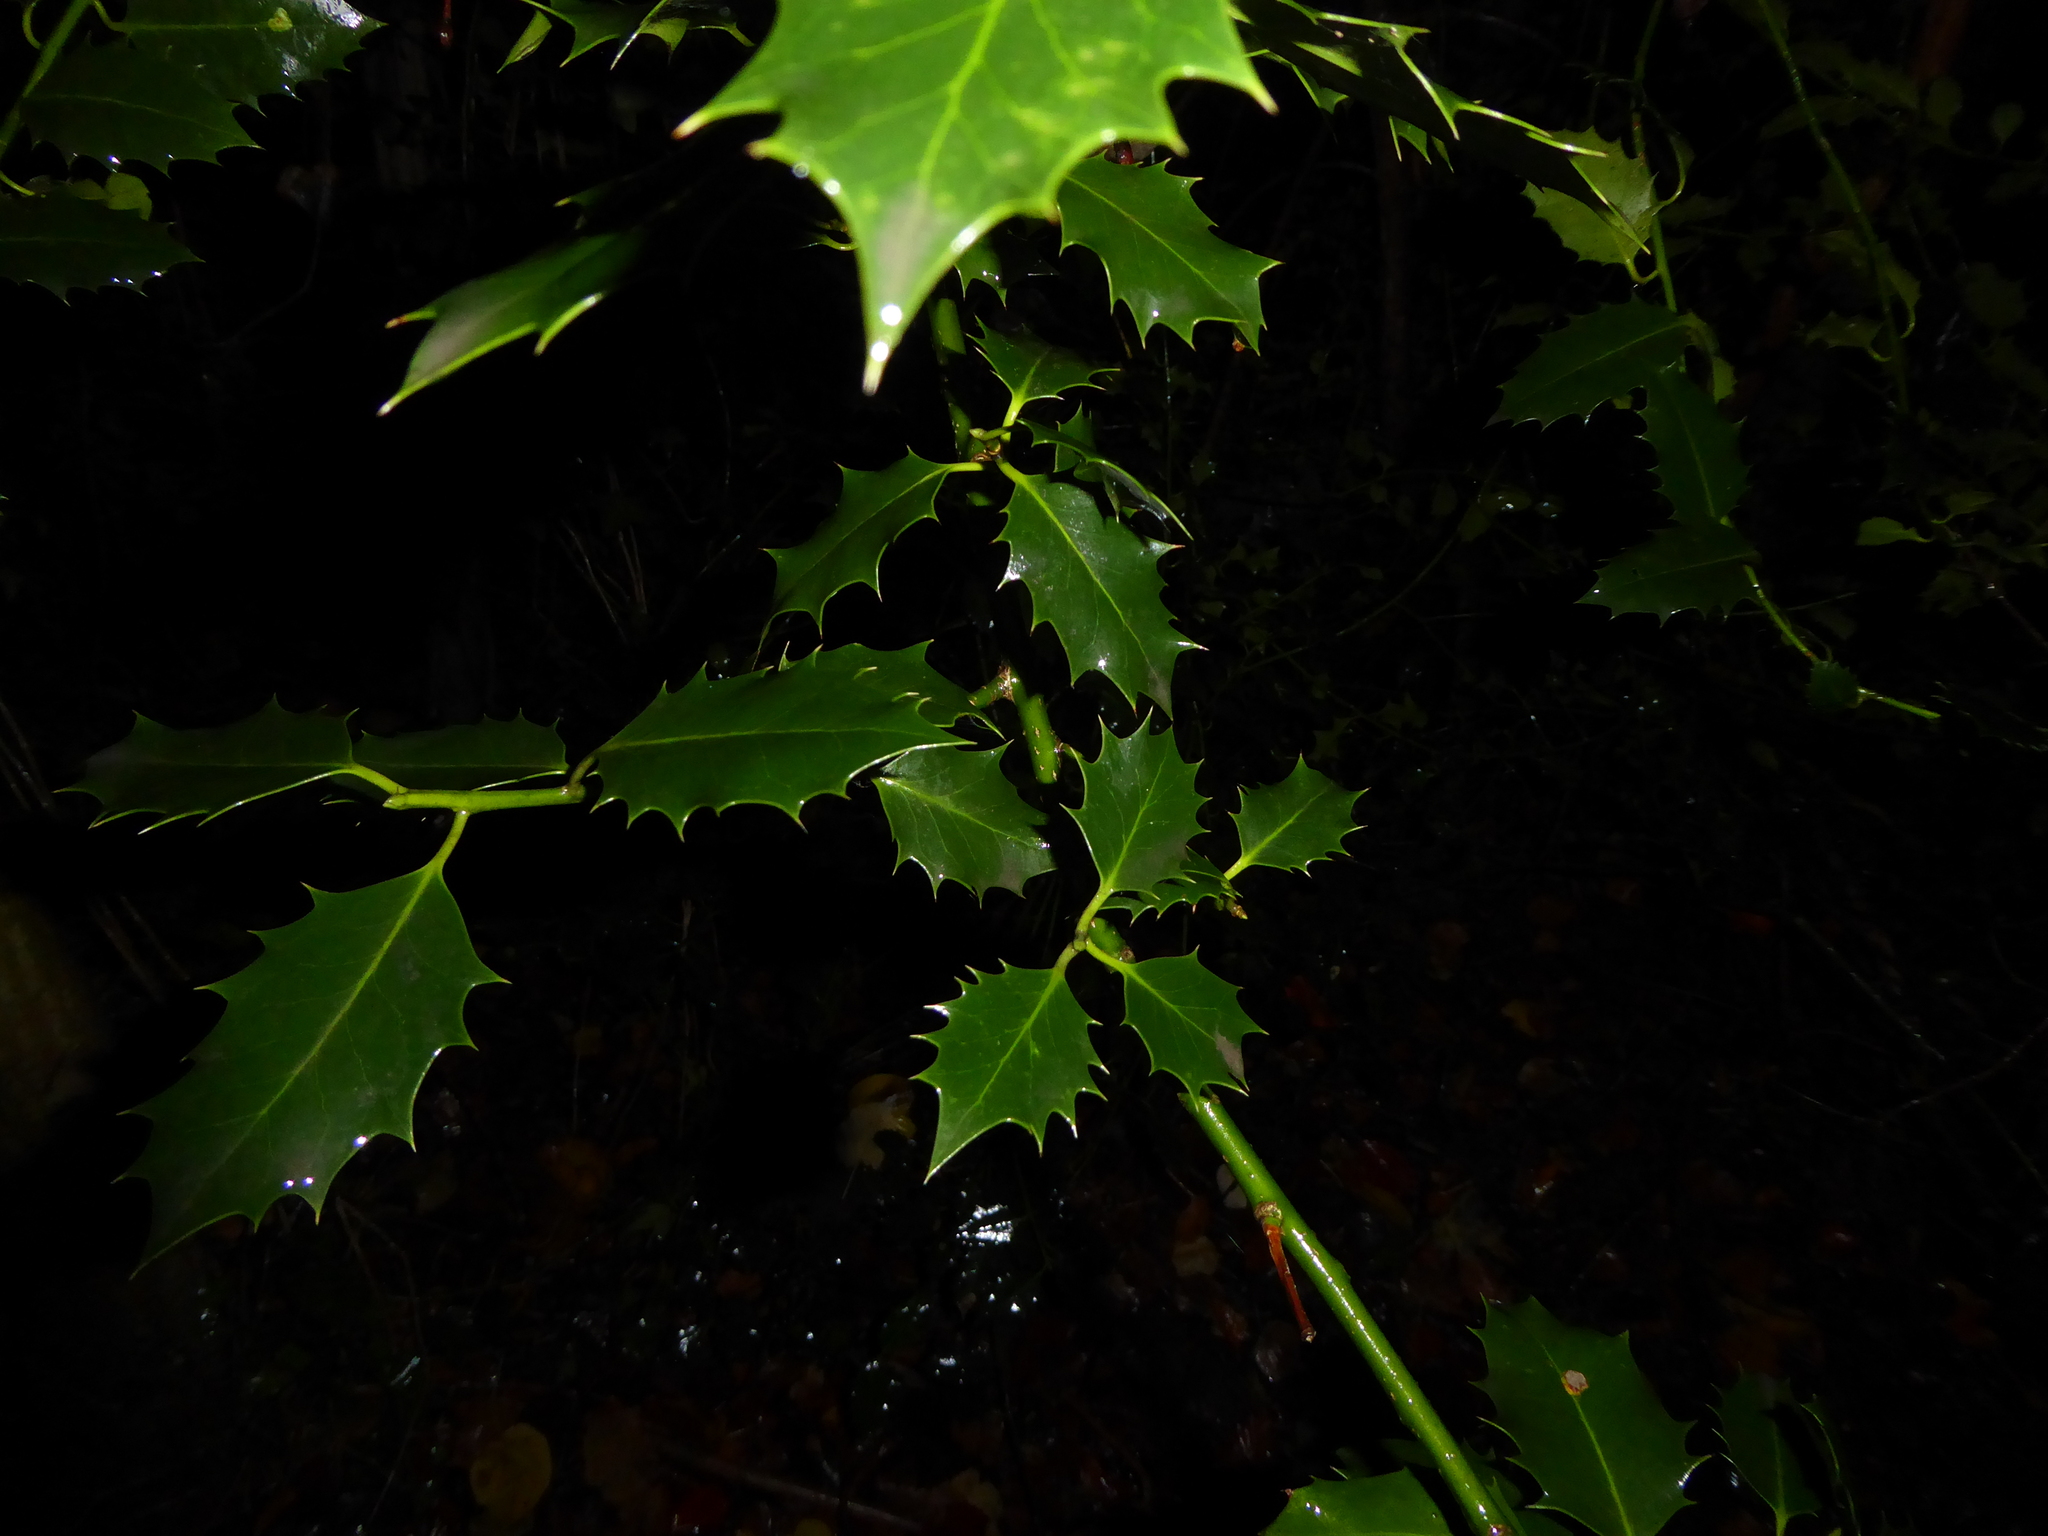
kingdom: Plantae
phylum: Tracheophyta
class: Magnoliopsida
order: Aquifoliales
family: Aquifoliaceae
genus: Ilex
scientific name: Ilex aquifolium
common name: English holly
